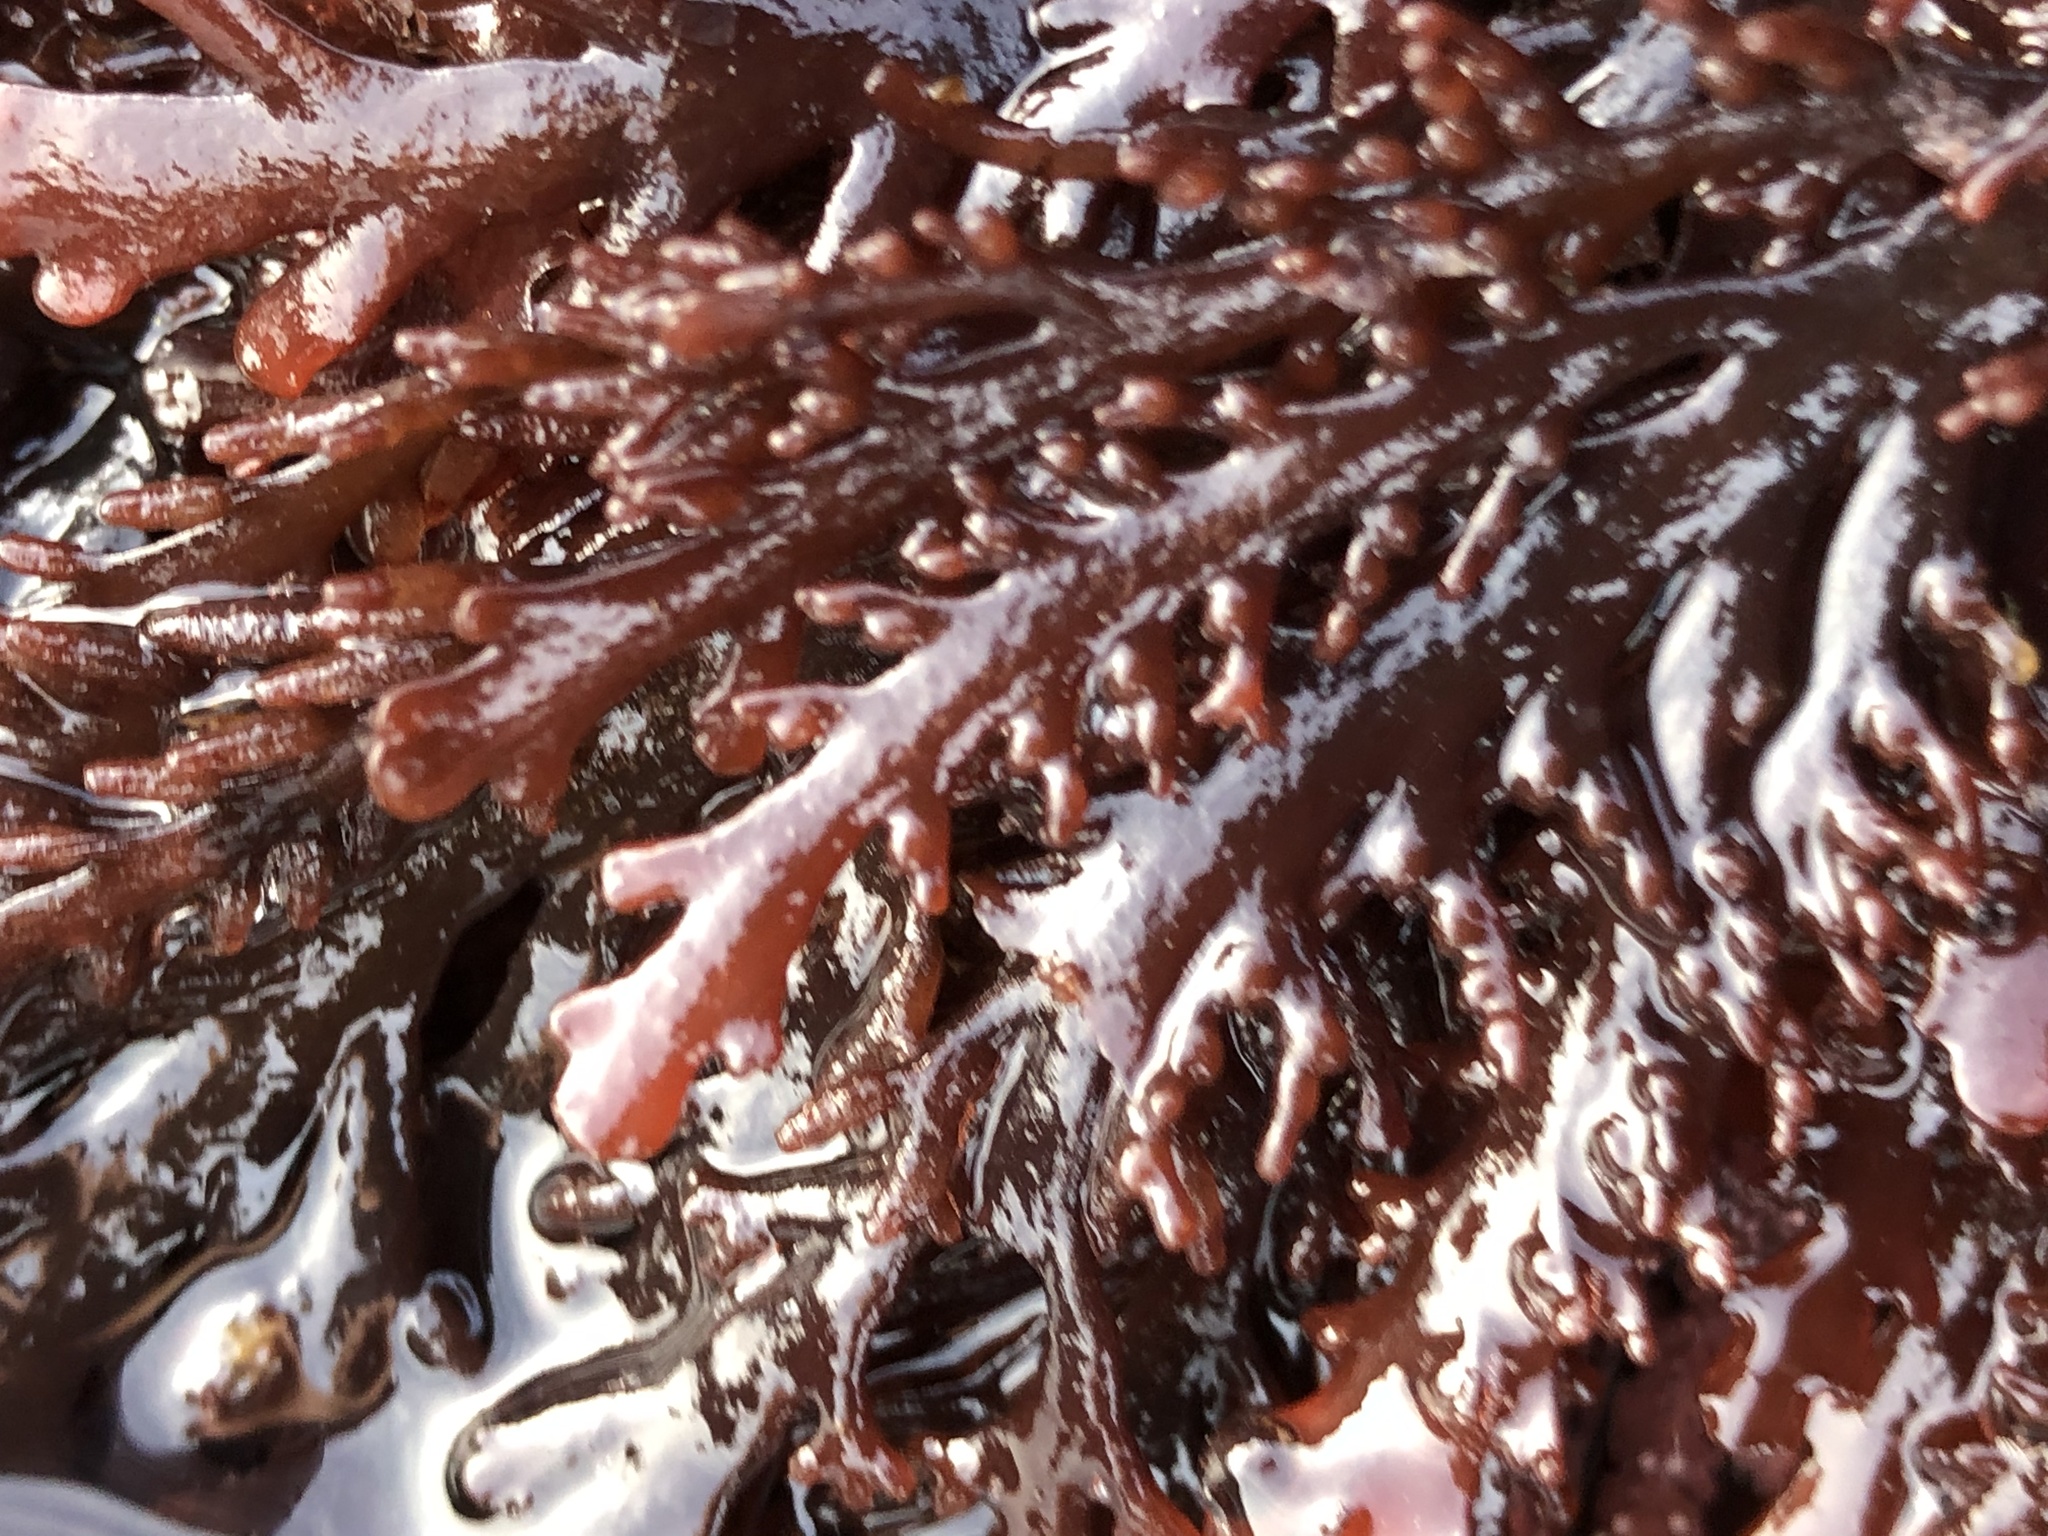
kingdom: Plantae
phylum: Rhodophyta
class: Florideophyceae
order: Ceramiales
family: Rhodomelaceae
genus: Osmundea
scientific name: Osmundea spectabilis
